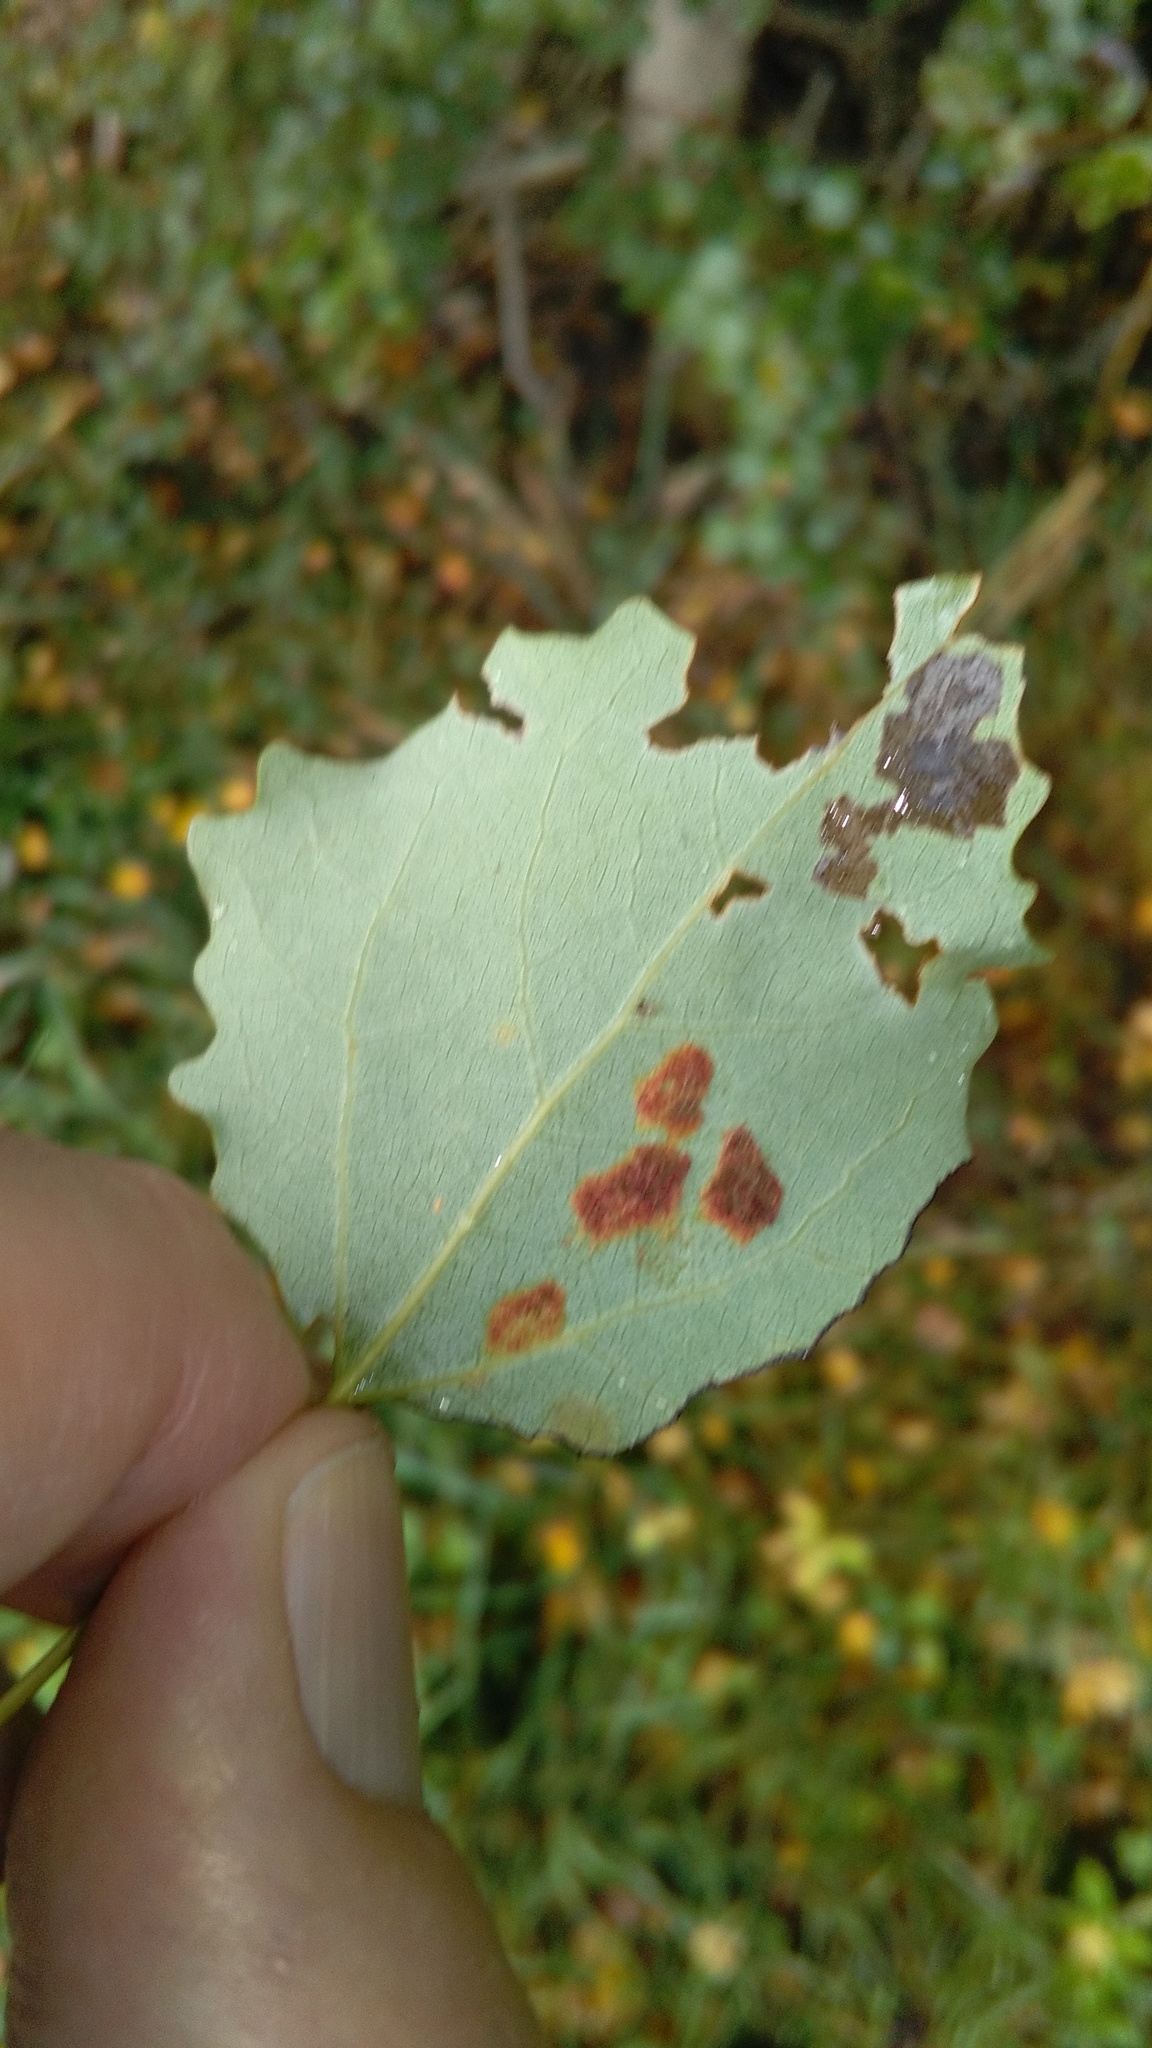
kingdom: Animalia
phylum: Arthropoda
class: Arachnida
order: Trombidiformes
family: Eriophyidae
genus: Phyllocoptes
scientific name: Phyllocoptes populi
